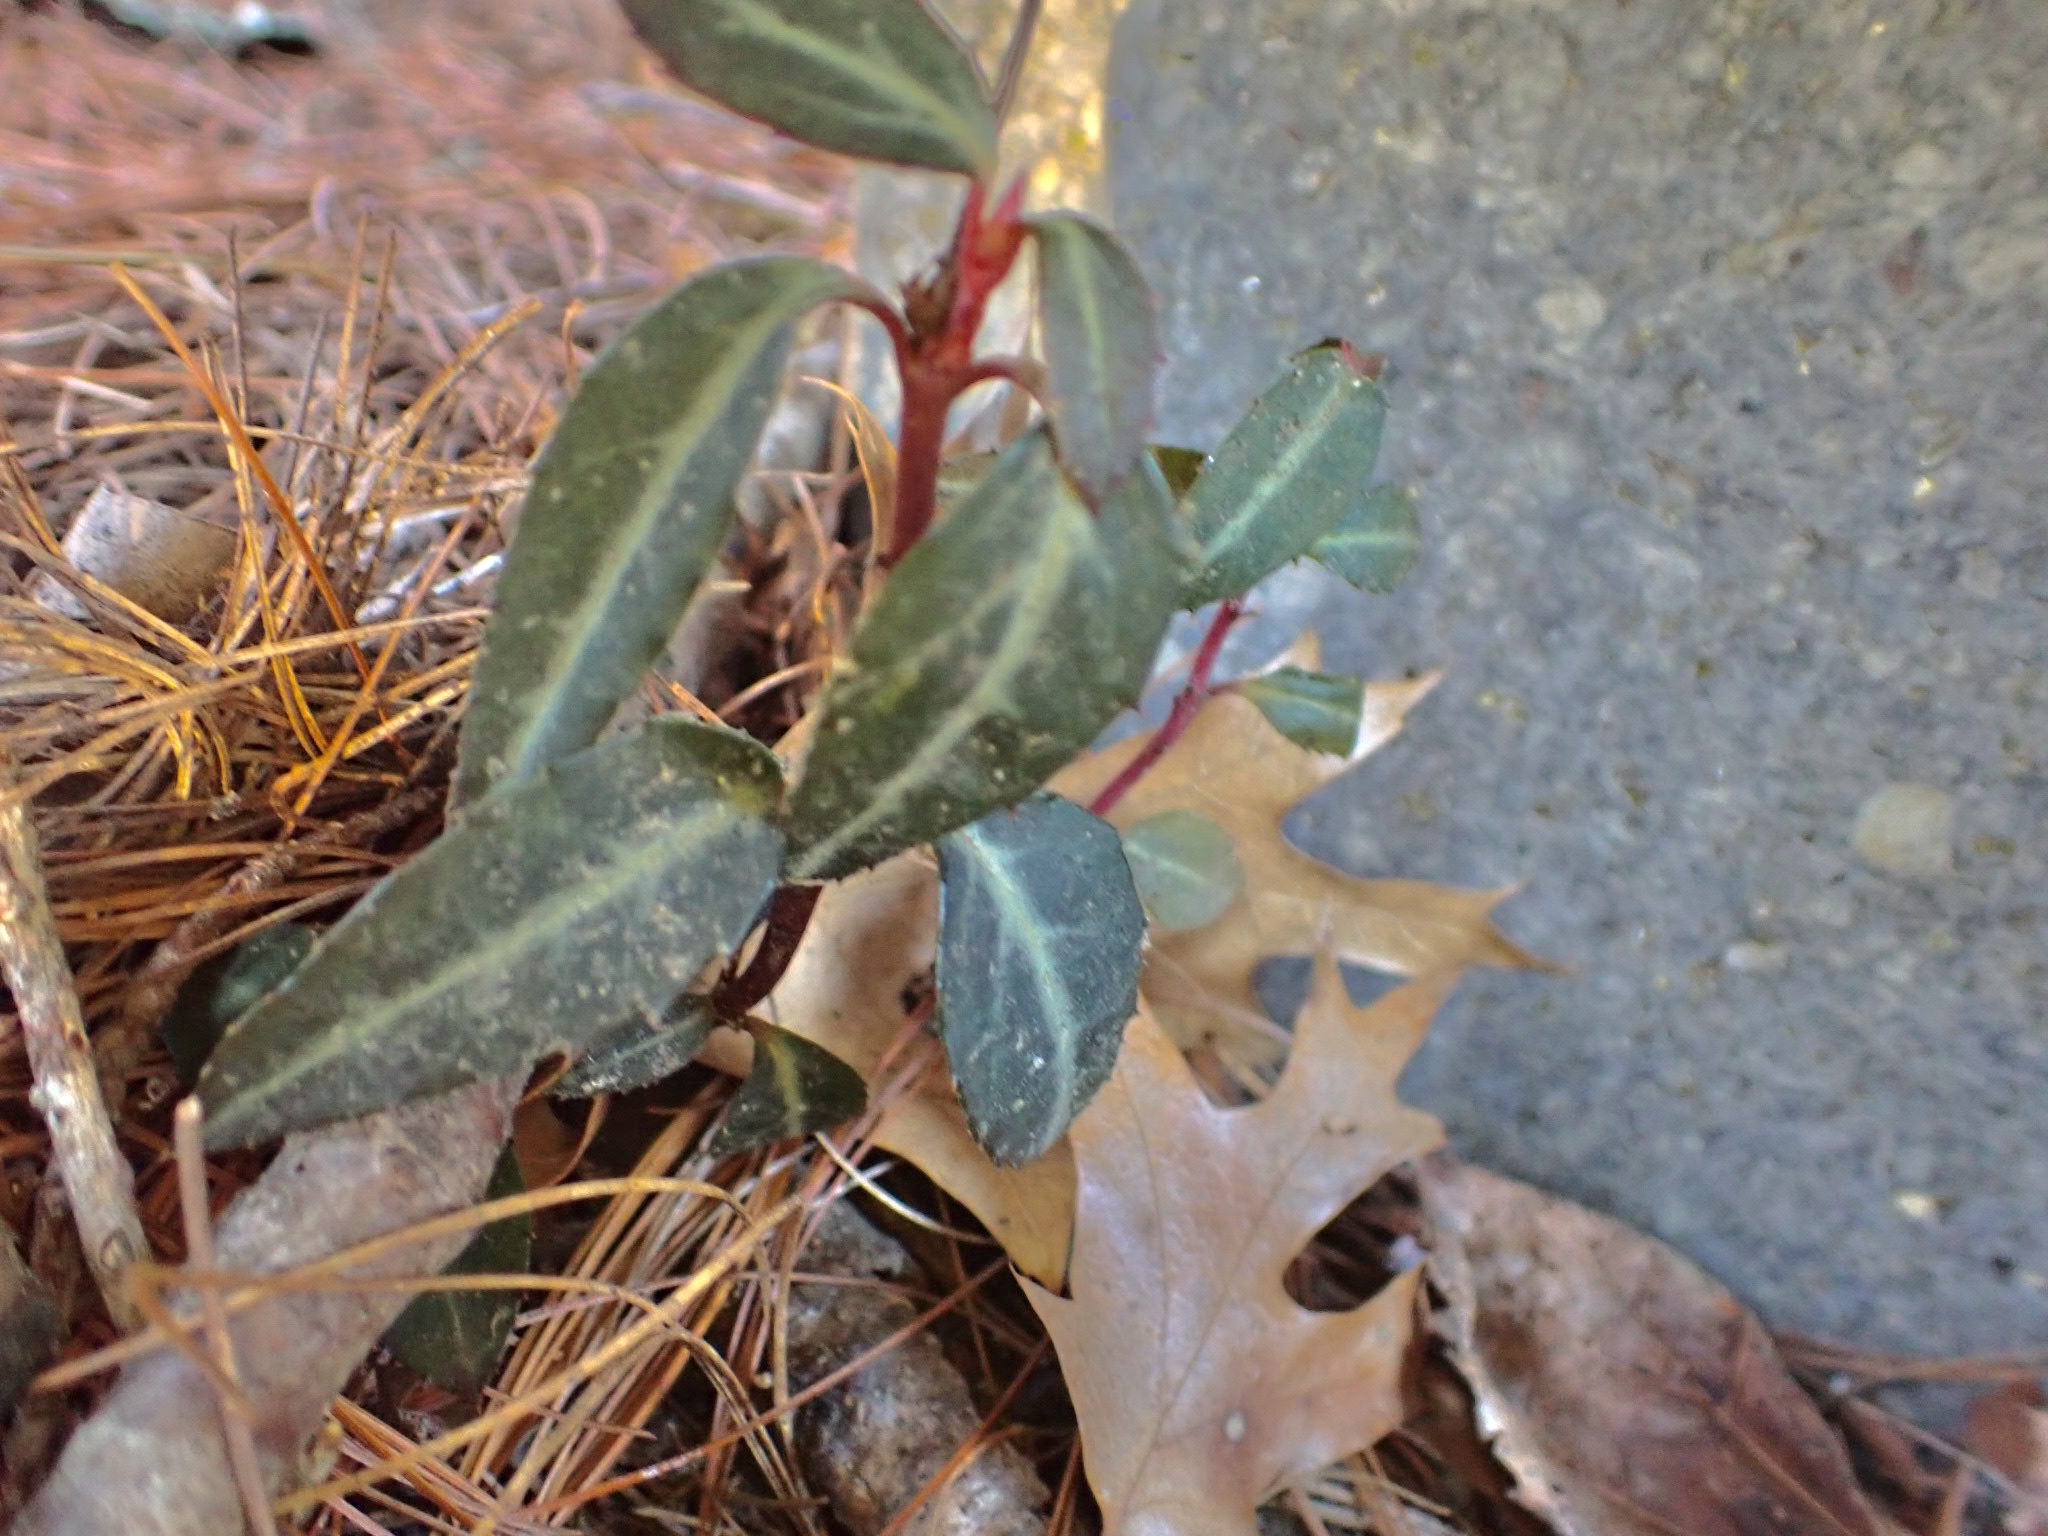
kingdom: Plantae
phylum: Tracheophyta
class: Magnoliopsida
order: Ericales
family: Ericaceae
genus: Chimaphila
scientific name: Chimaphila maculata
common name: Spotted pipsissewa
